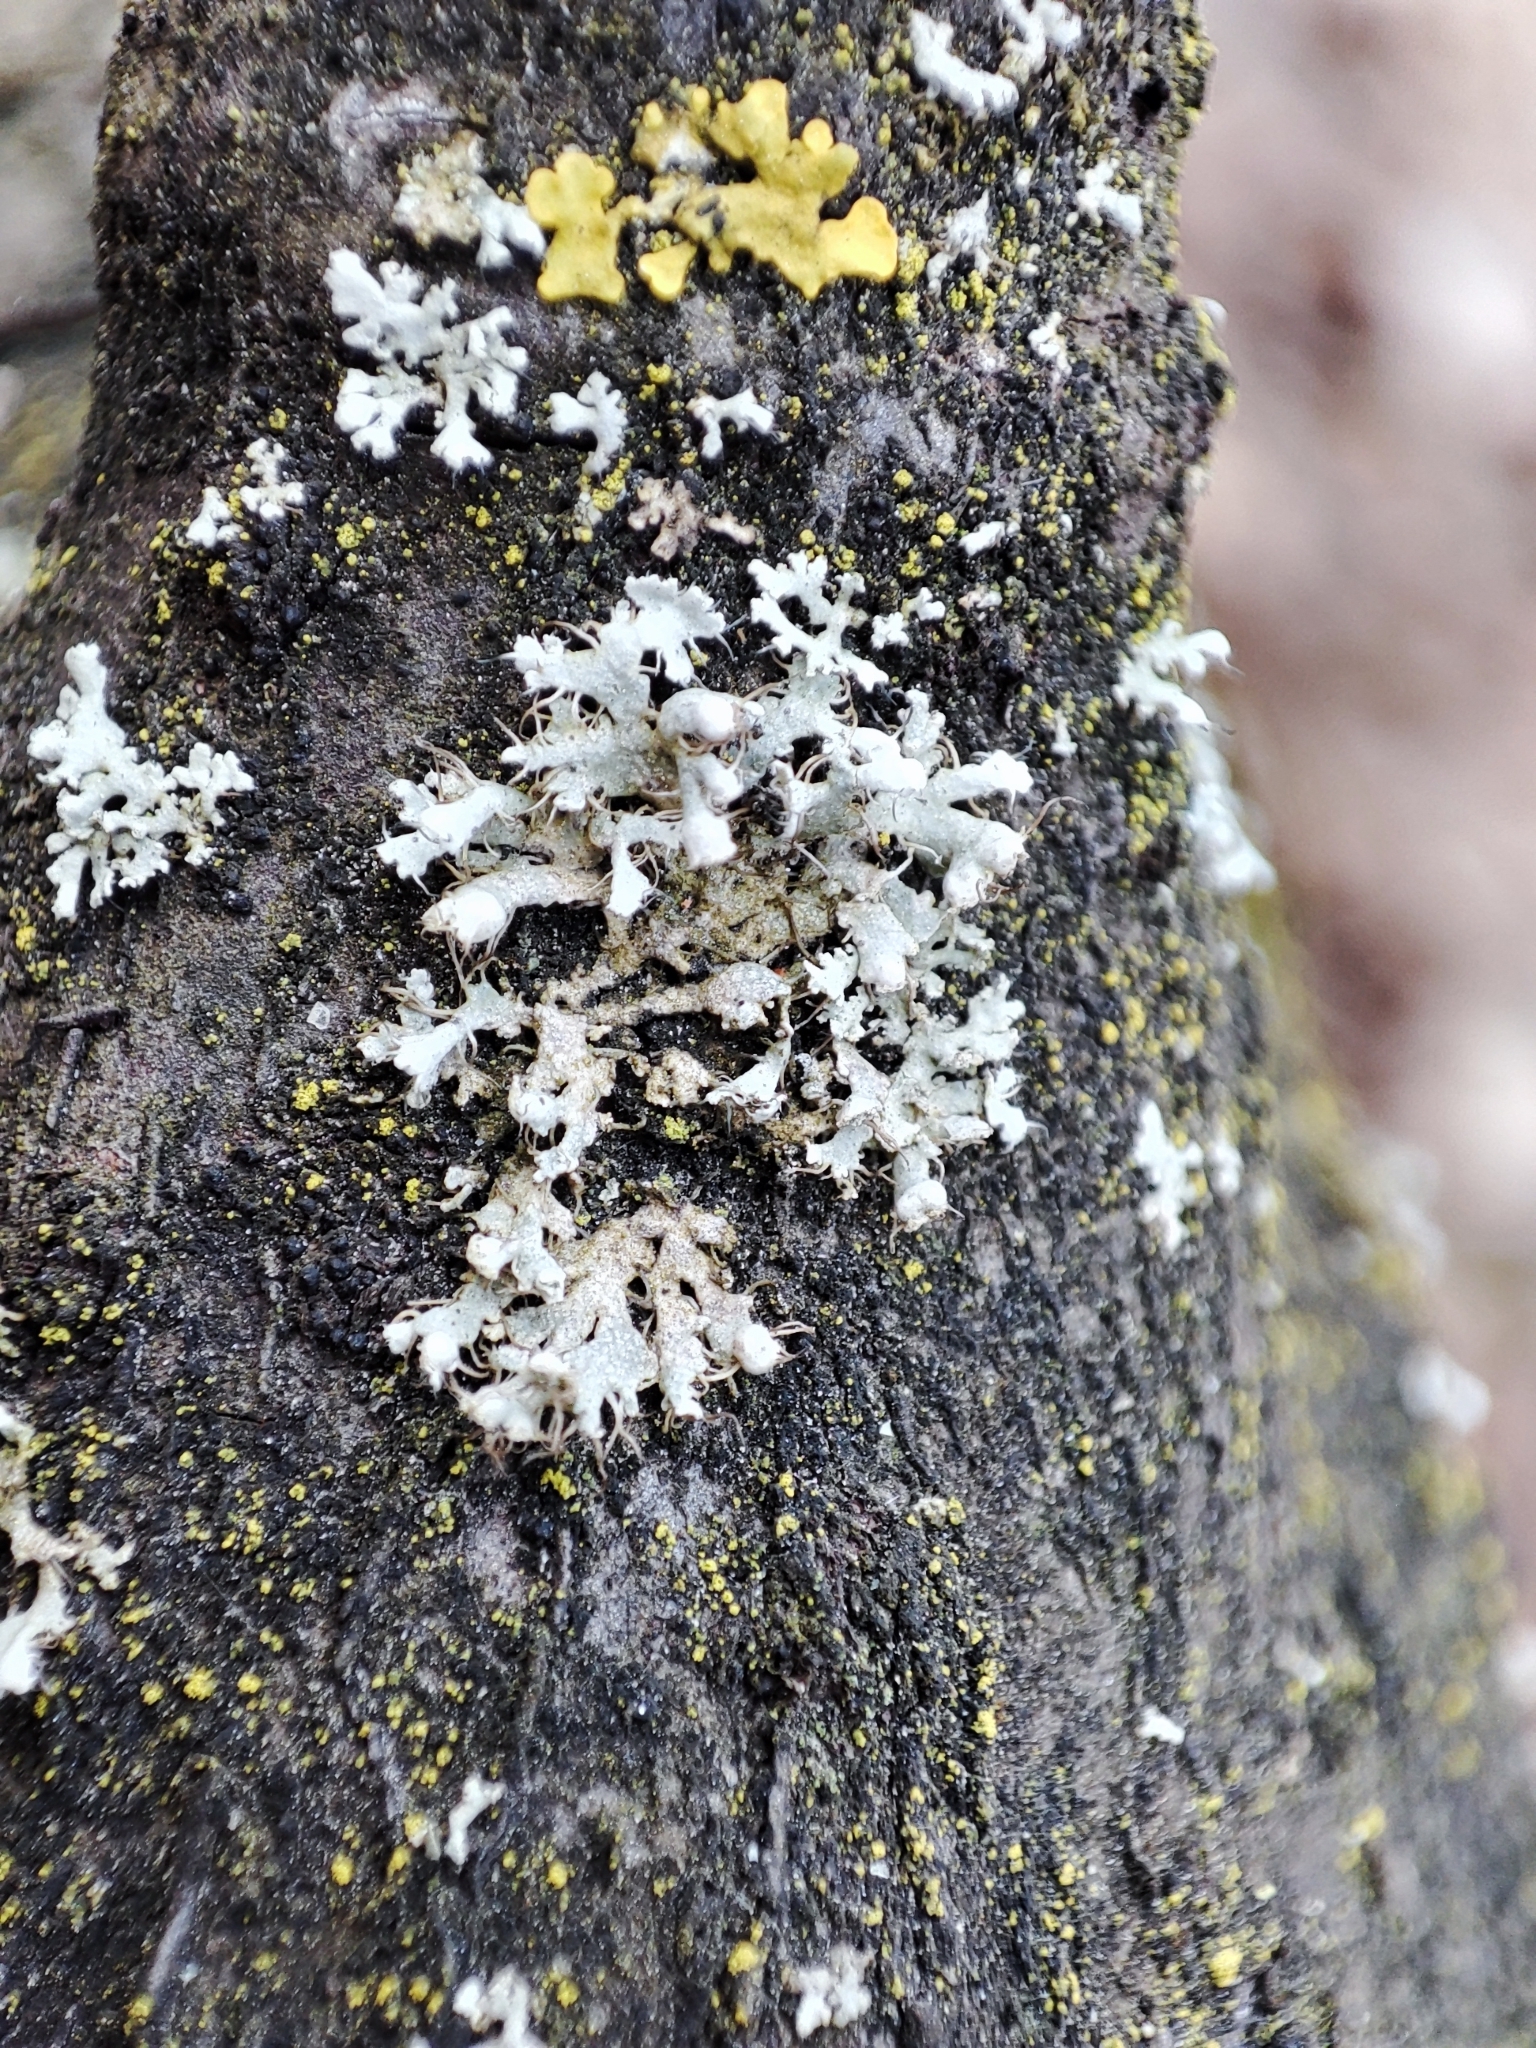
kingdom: Fungi
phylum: Ascomycota
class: Lecanoromycetes
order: Caliciales
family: Physciaceae
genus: Physcia
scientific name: Physcia adscendens
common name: Hooded rosette lichen
